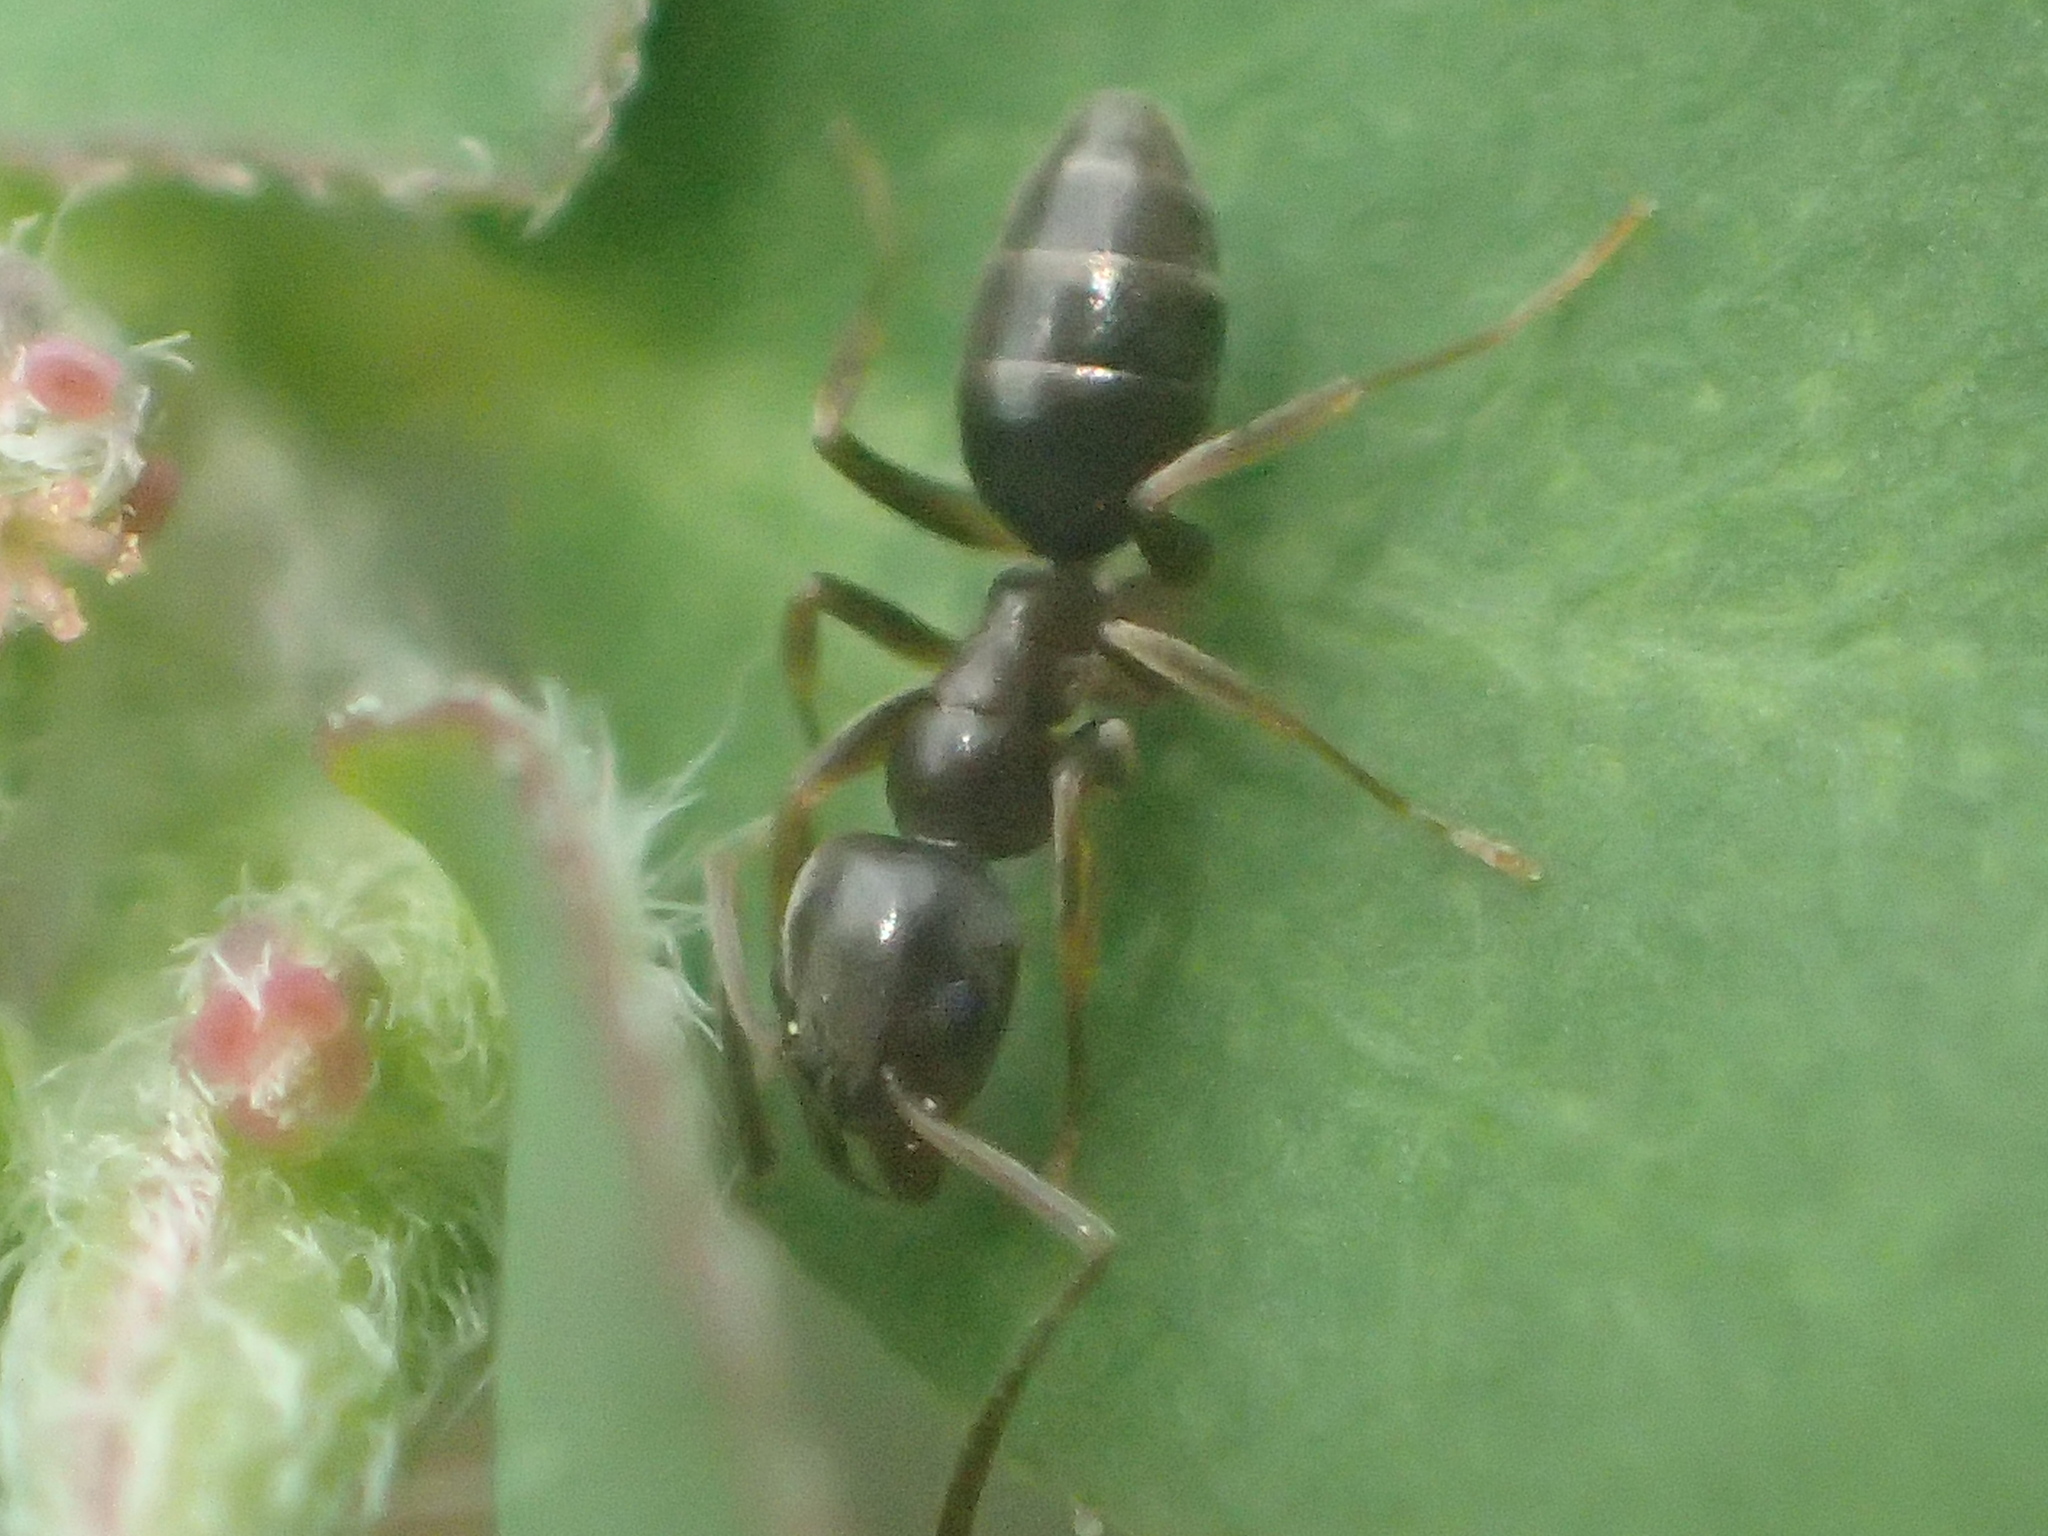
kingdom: Animalia
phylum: Arthropoda
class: Insecta
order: Hymenoptera
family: Formicidae
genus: Tapinoma
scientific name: Tapinoma sessile
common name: Odorous house ant
